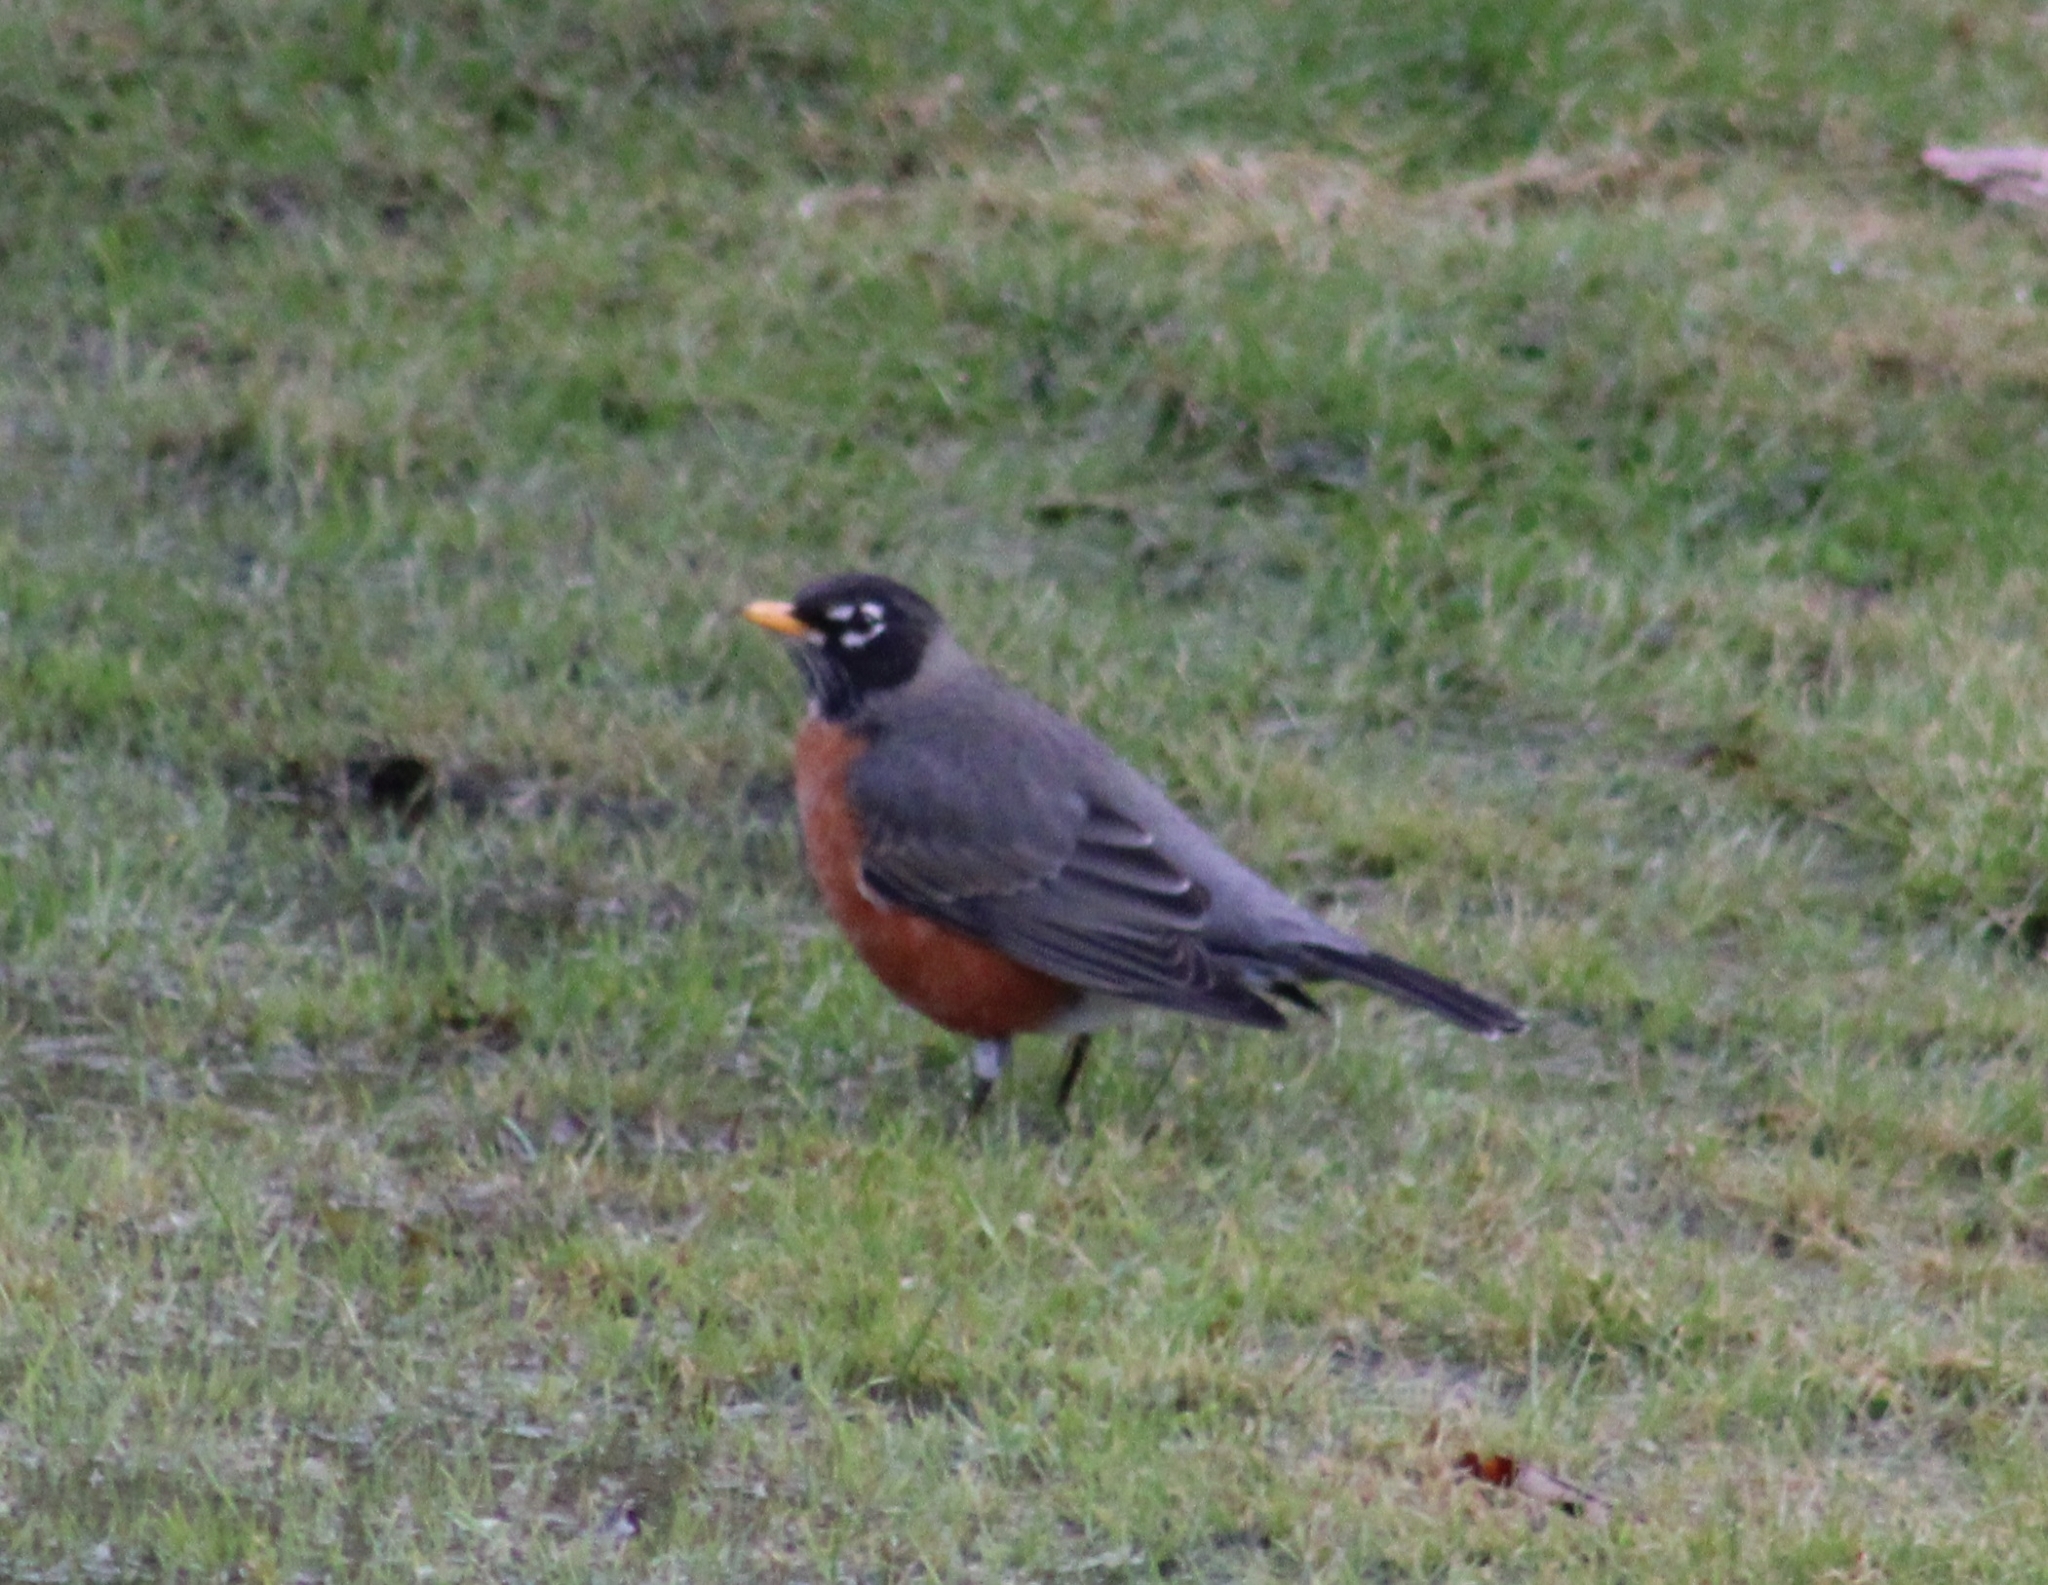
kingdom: Animalia
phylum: Chordata
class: Aves
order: Passeriformes
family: Turdidae
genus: Turdus
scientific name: Turdus migratorius
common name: American robin
